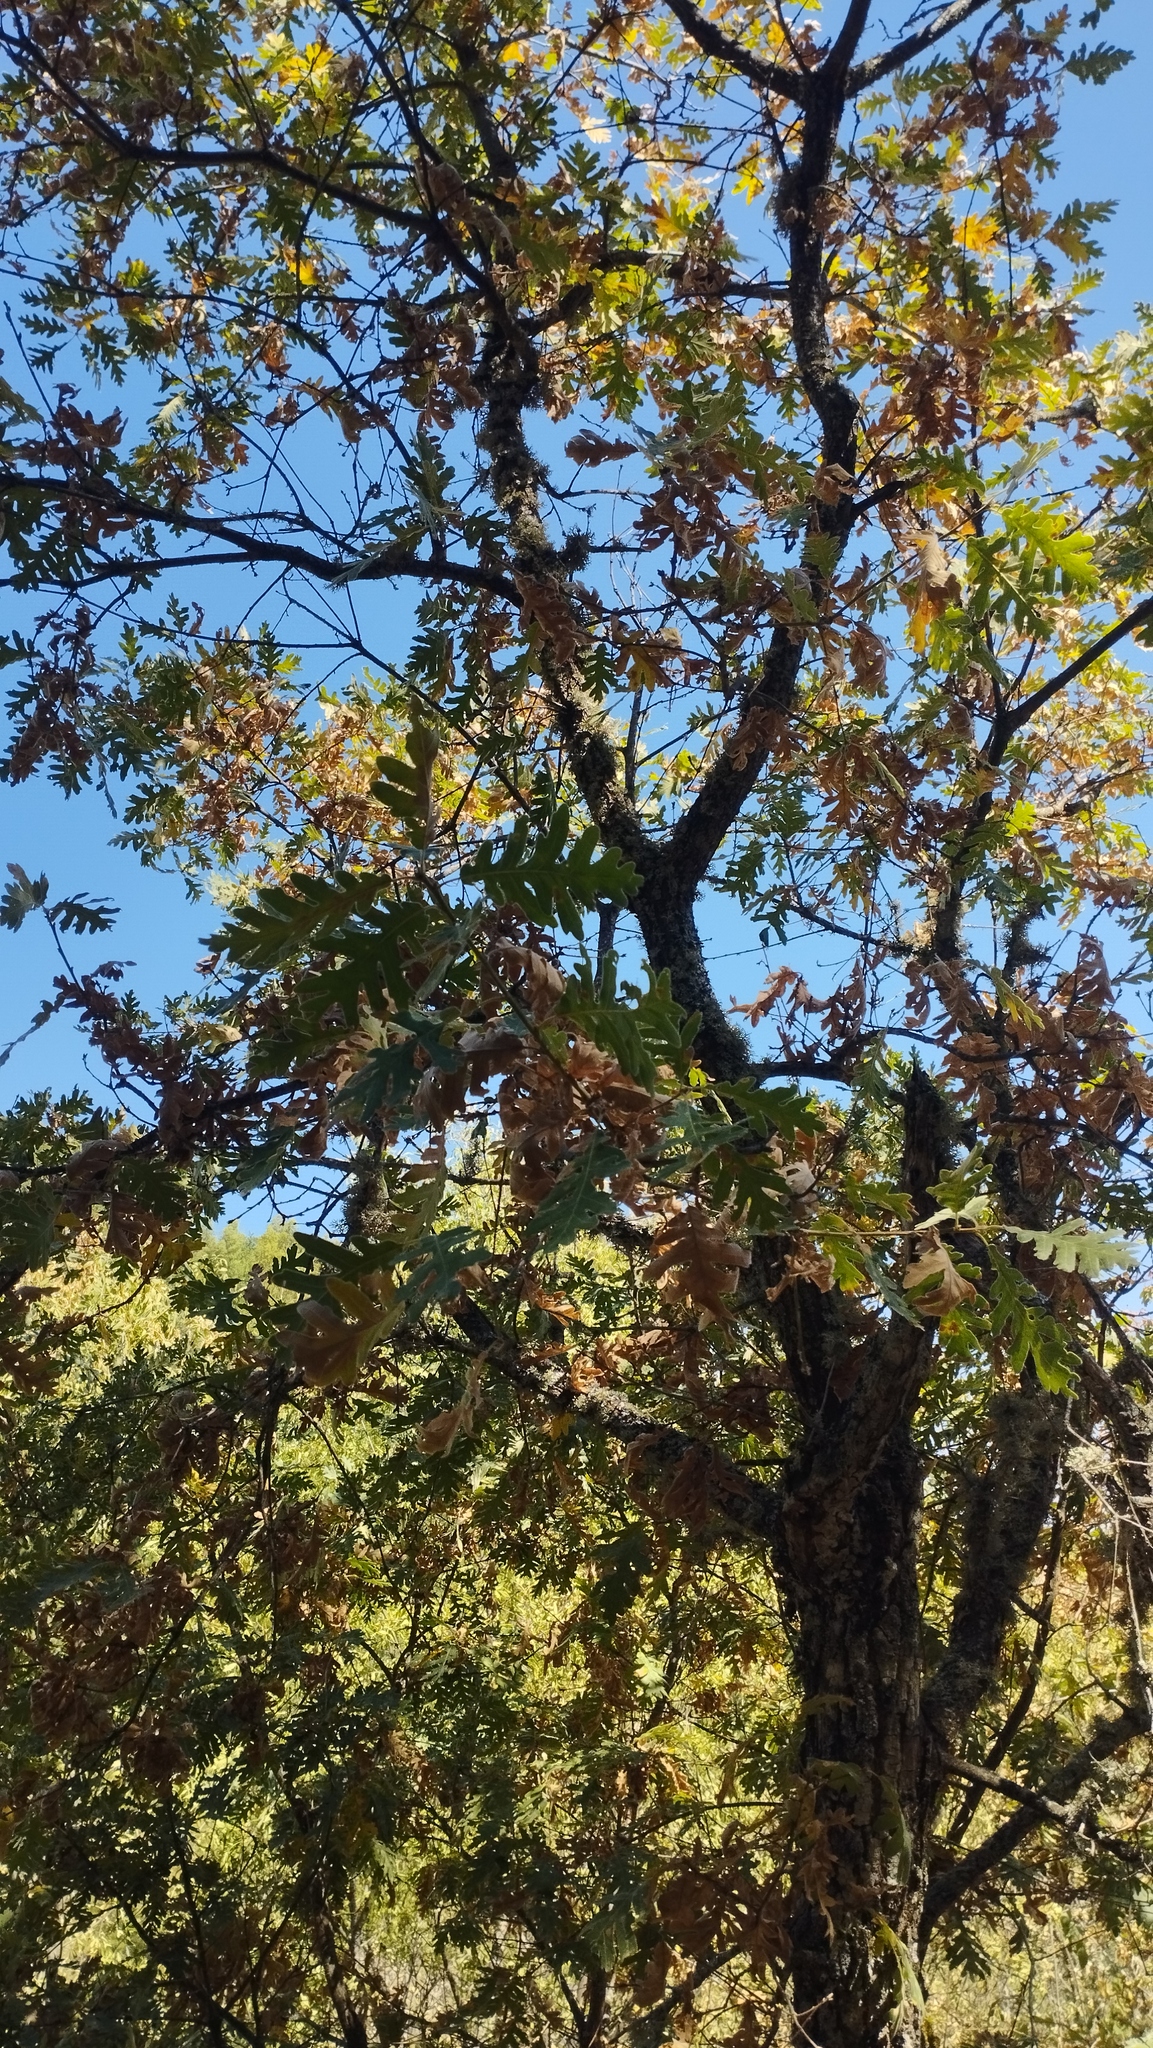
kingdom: Plantae
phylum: Tracheophyta
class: Magnoliopsida
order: Fagales
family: Fagaceae
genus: Quercus
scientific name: Quercus pyrenaica
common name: Pyrenean oak
